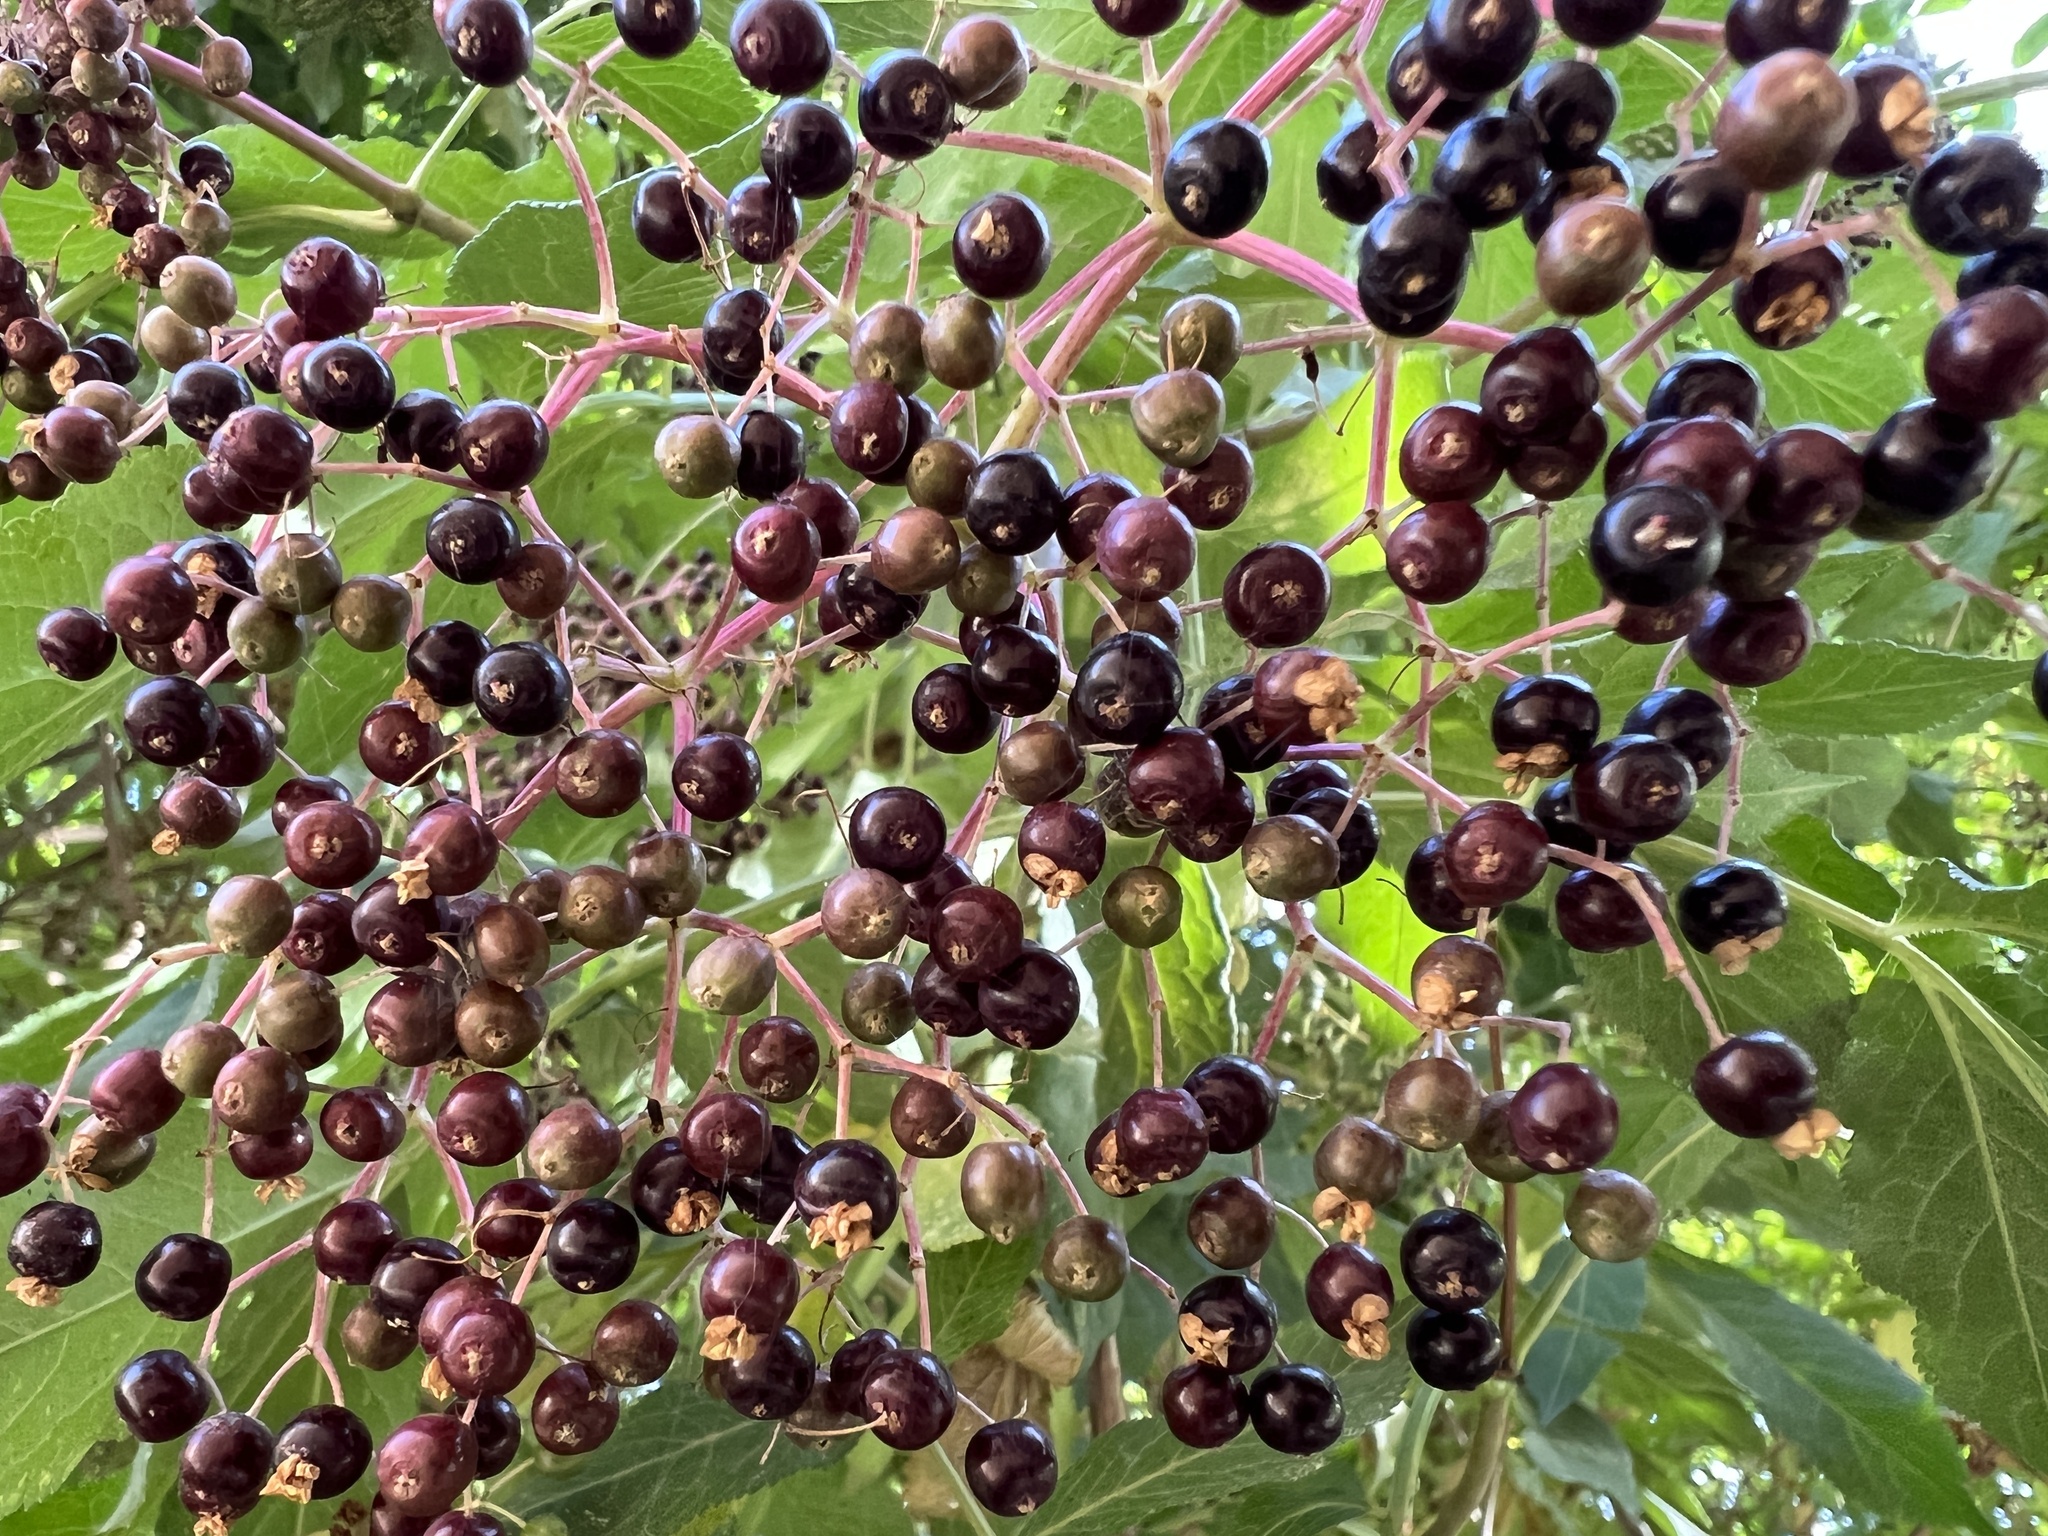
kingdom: Plantae
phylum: Tracheophyta
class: Magnoliopsida
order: Dipsacales
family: Viburnaceae
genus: Sambucus
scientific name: Sambucus nigra
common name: Elder
